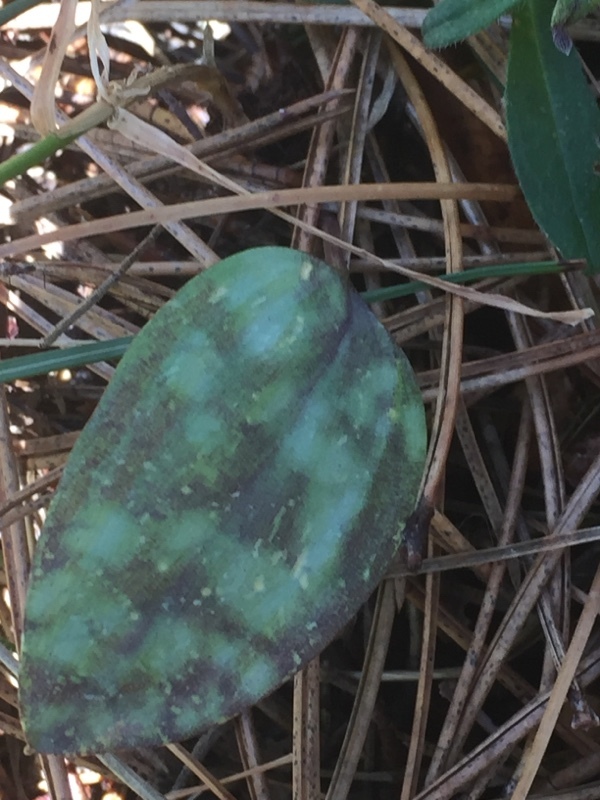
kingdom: Plantae
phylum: Tracheophyta
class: Liliopsida
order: Liliales
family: Liliaceae
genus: Erythronium
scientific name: Erythronium dens-canis
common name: Dog's-tooth-violet
